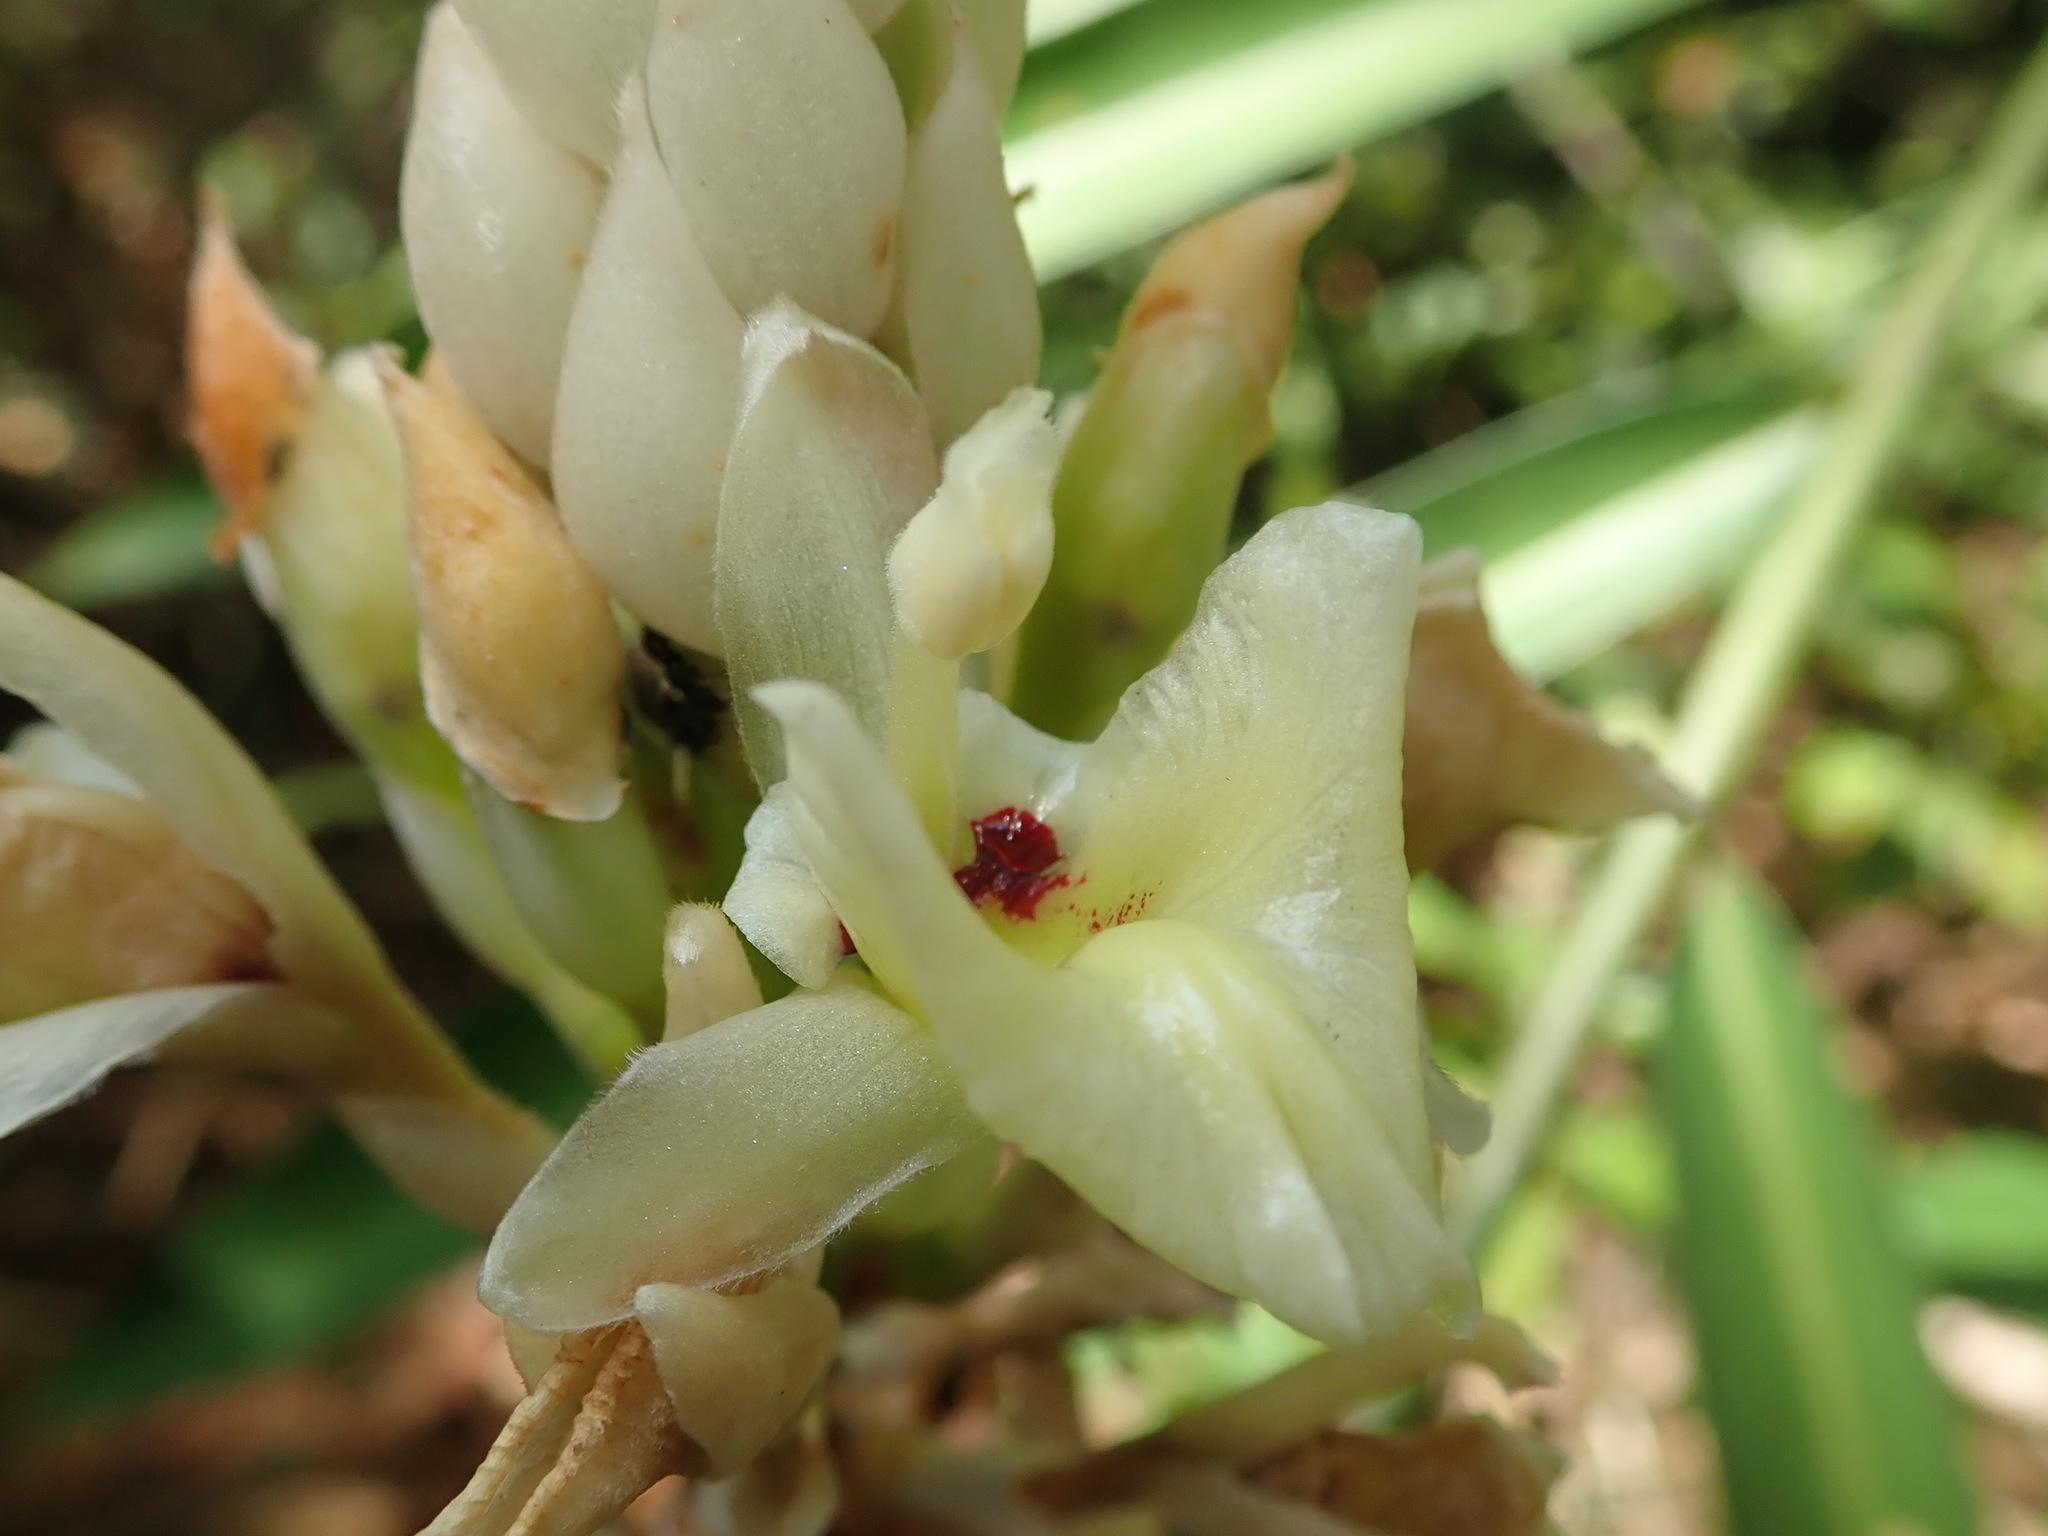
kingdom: Plantae
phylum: Tracheophyta
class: Liliopsida
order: Zingiberales
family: Zingiberaceae
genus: Alpinia
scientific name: Alpinia oxymitra
